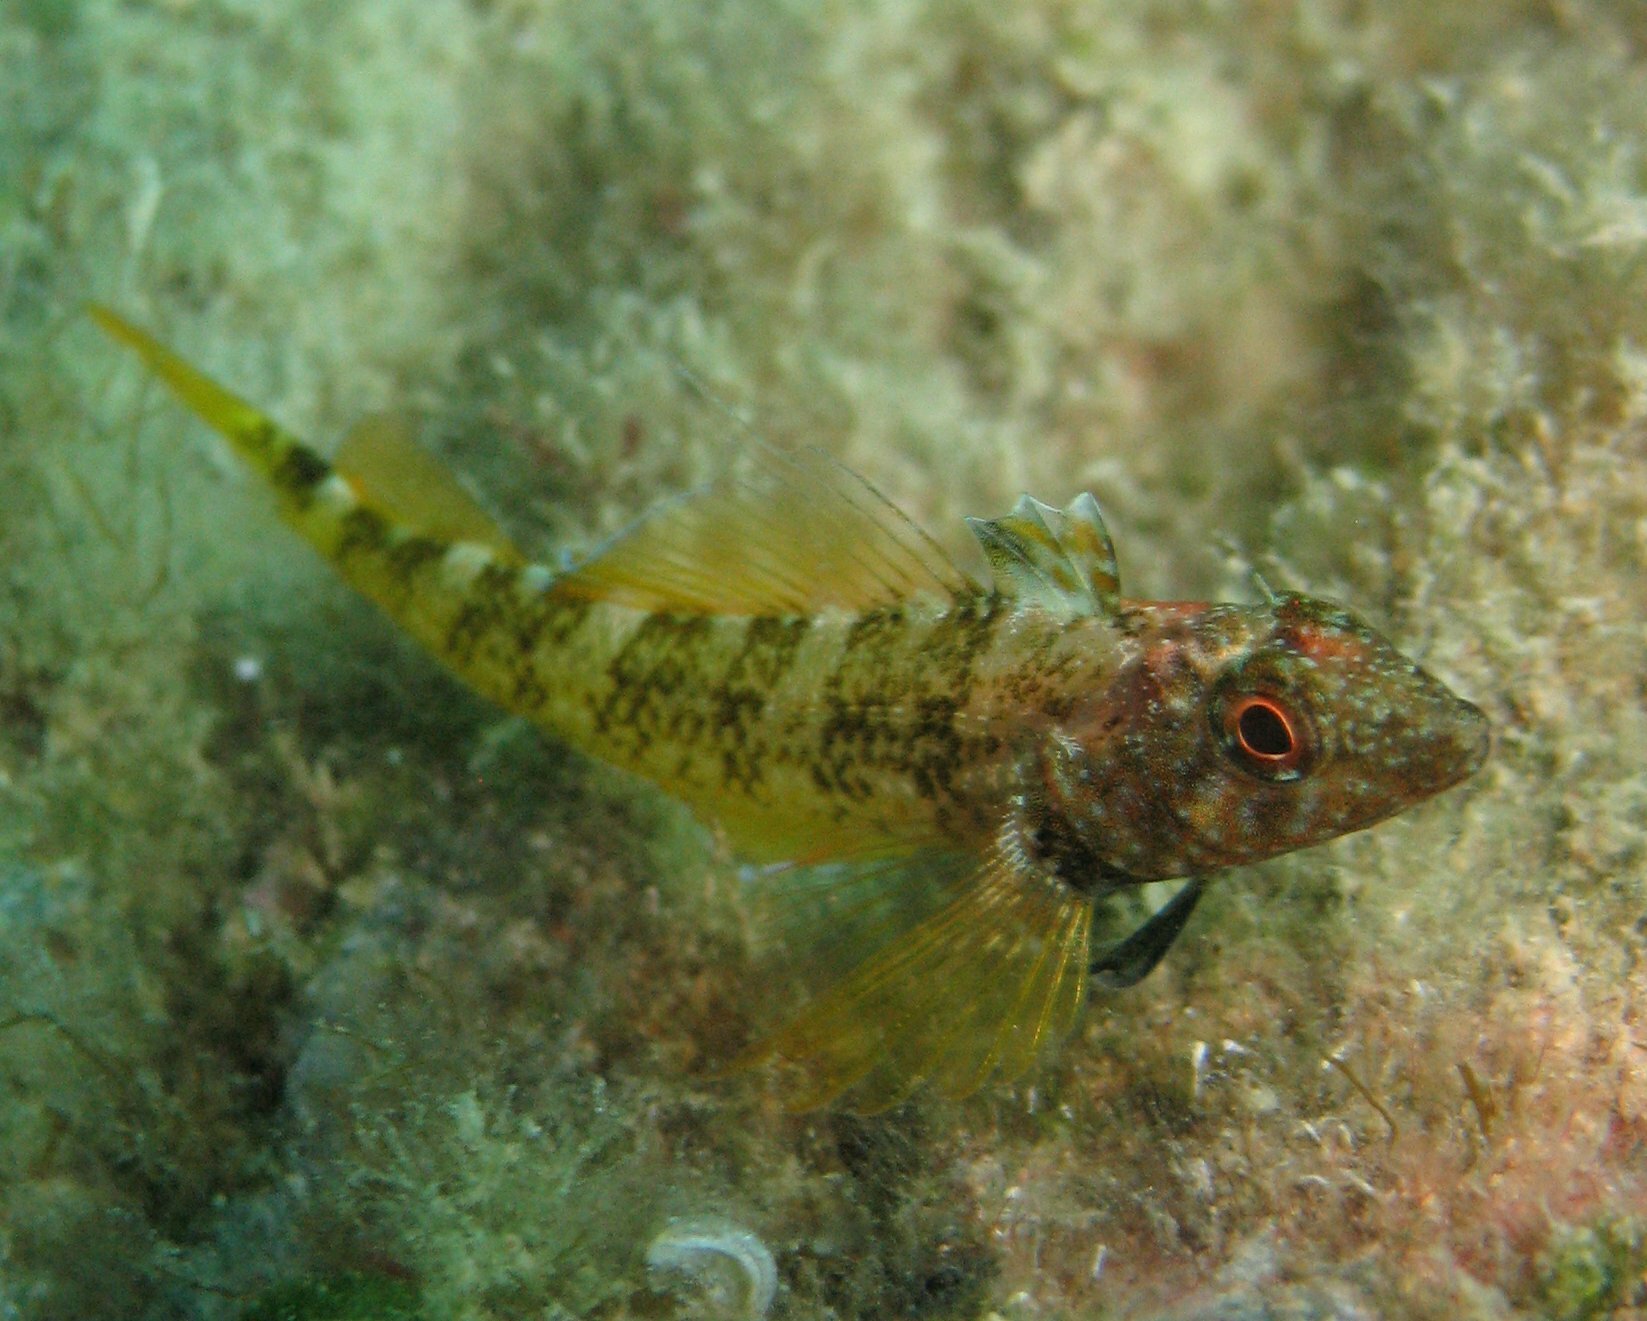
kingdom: Animalia
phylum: Chordata
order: Perciformes
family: Tripterygiidae
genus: Tripterygion
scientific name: Tripterygion delaisi
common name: Black-face blenny
